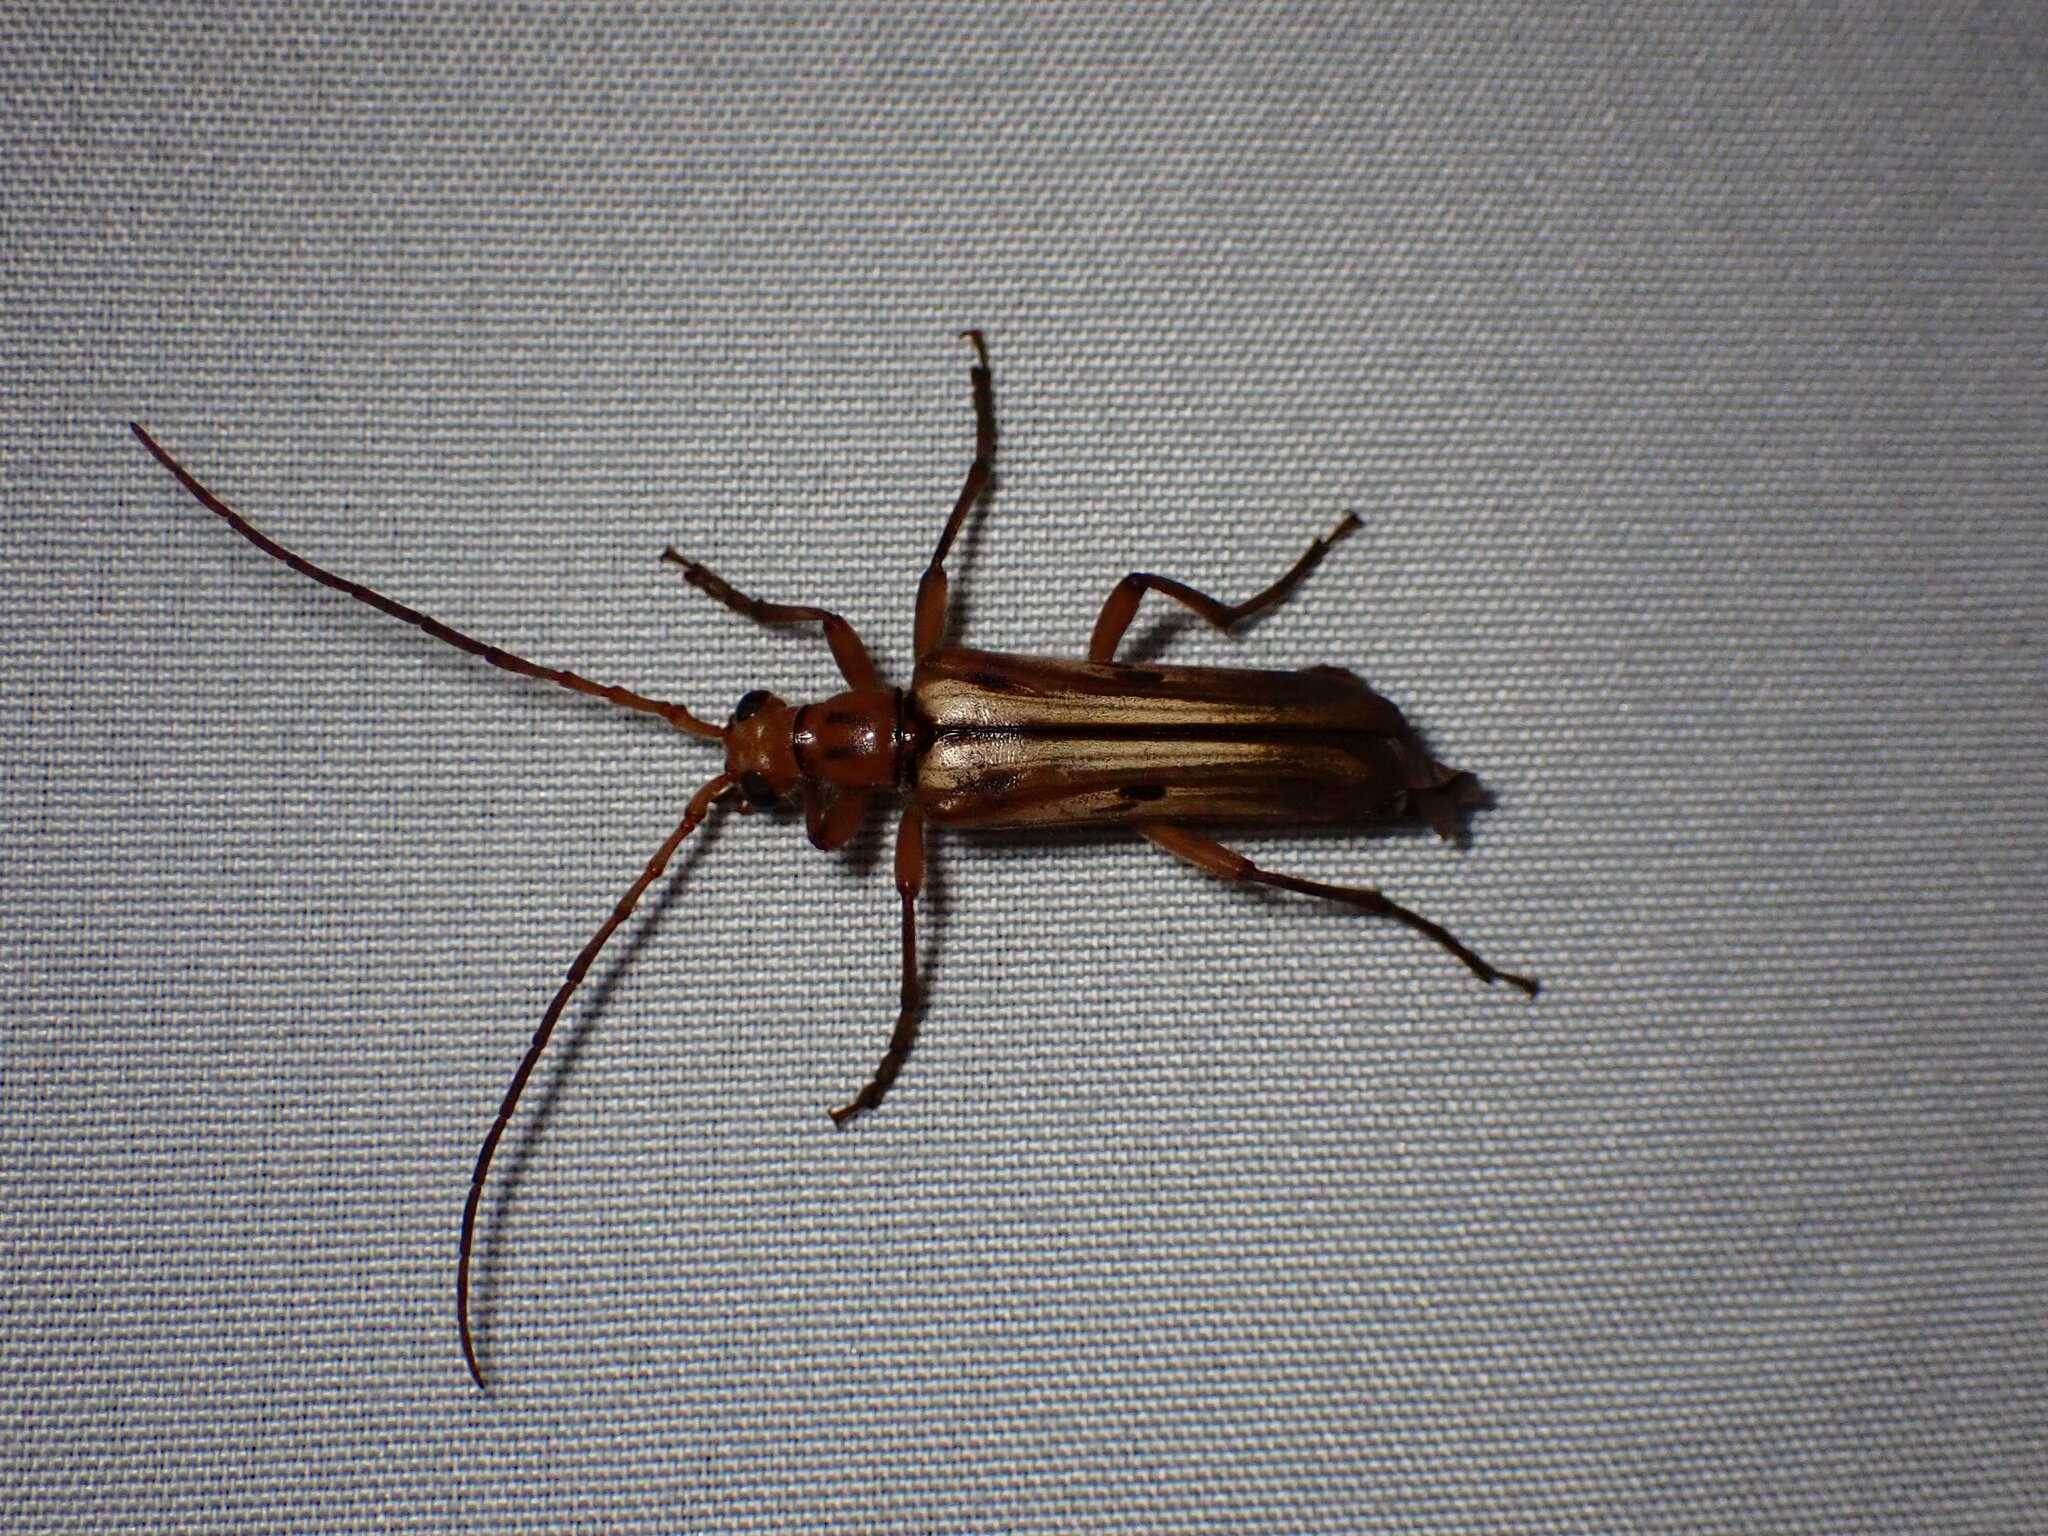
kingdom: Animalia
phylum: Arthropoda
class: Insecta
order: Coleoptera
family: Cerambycidae
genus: Ortholeptura
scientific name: Ortholeptura valida
